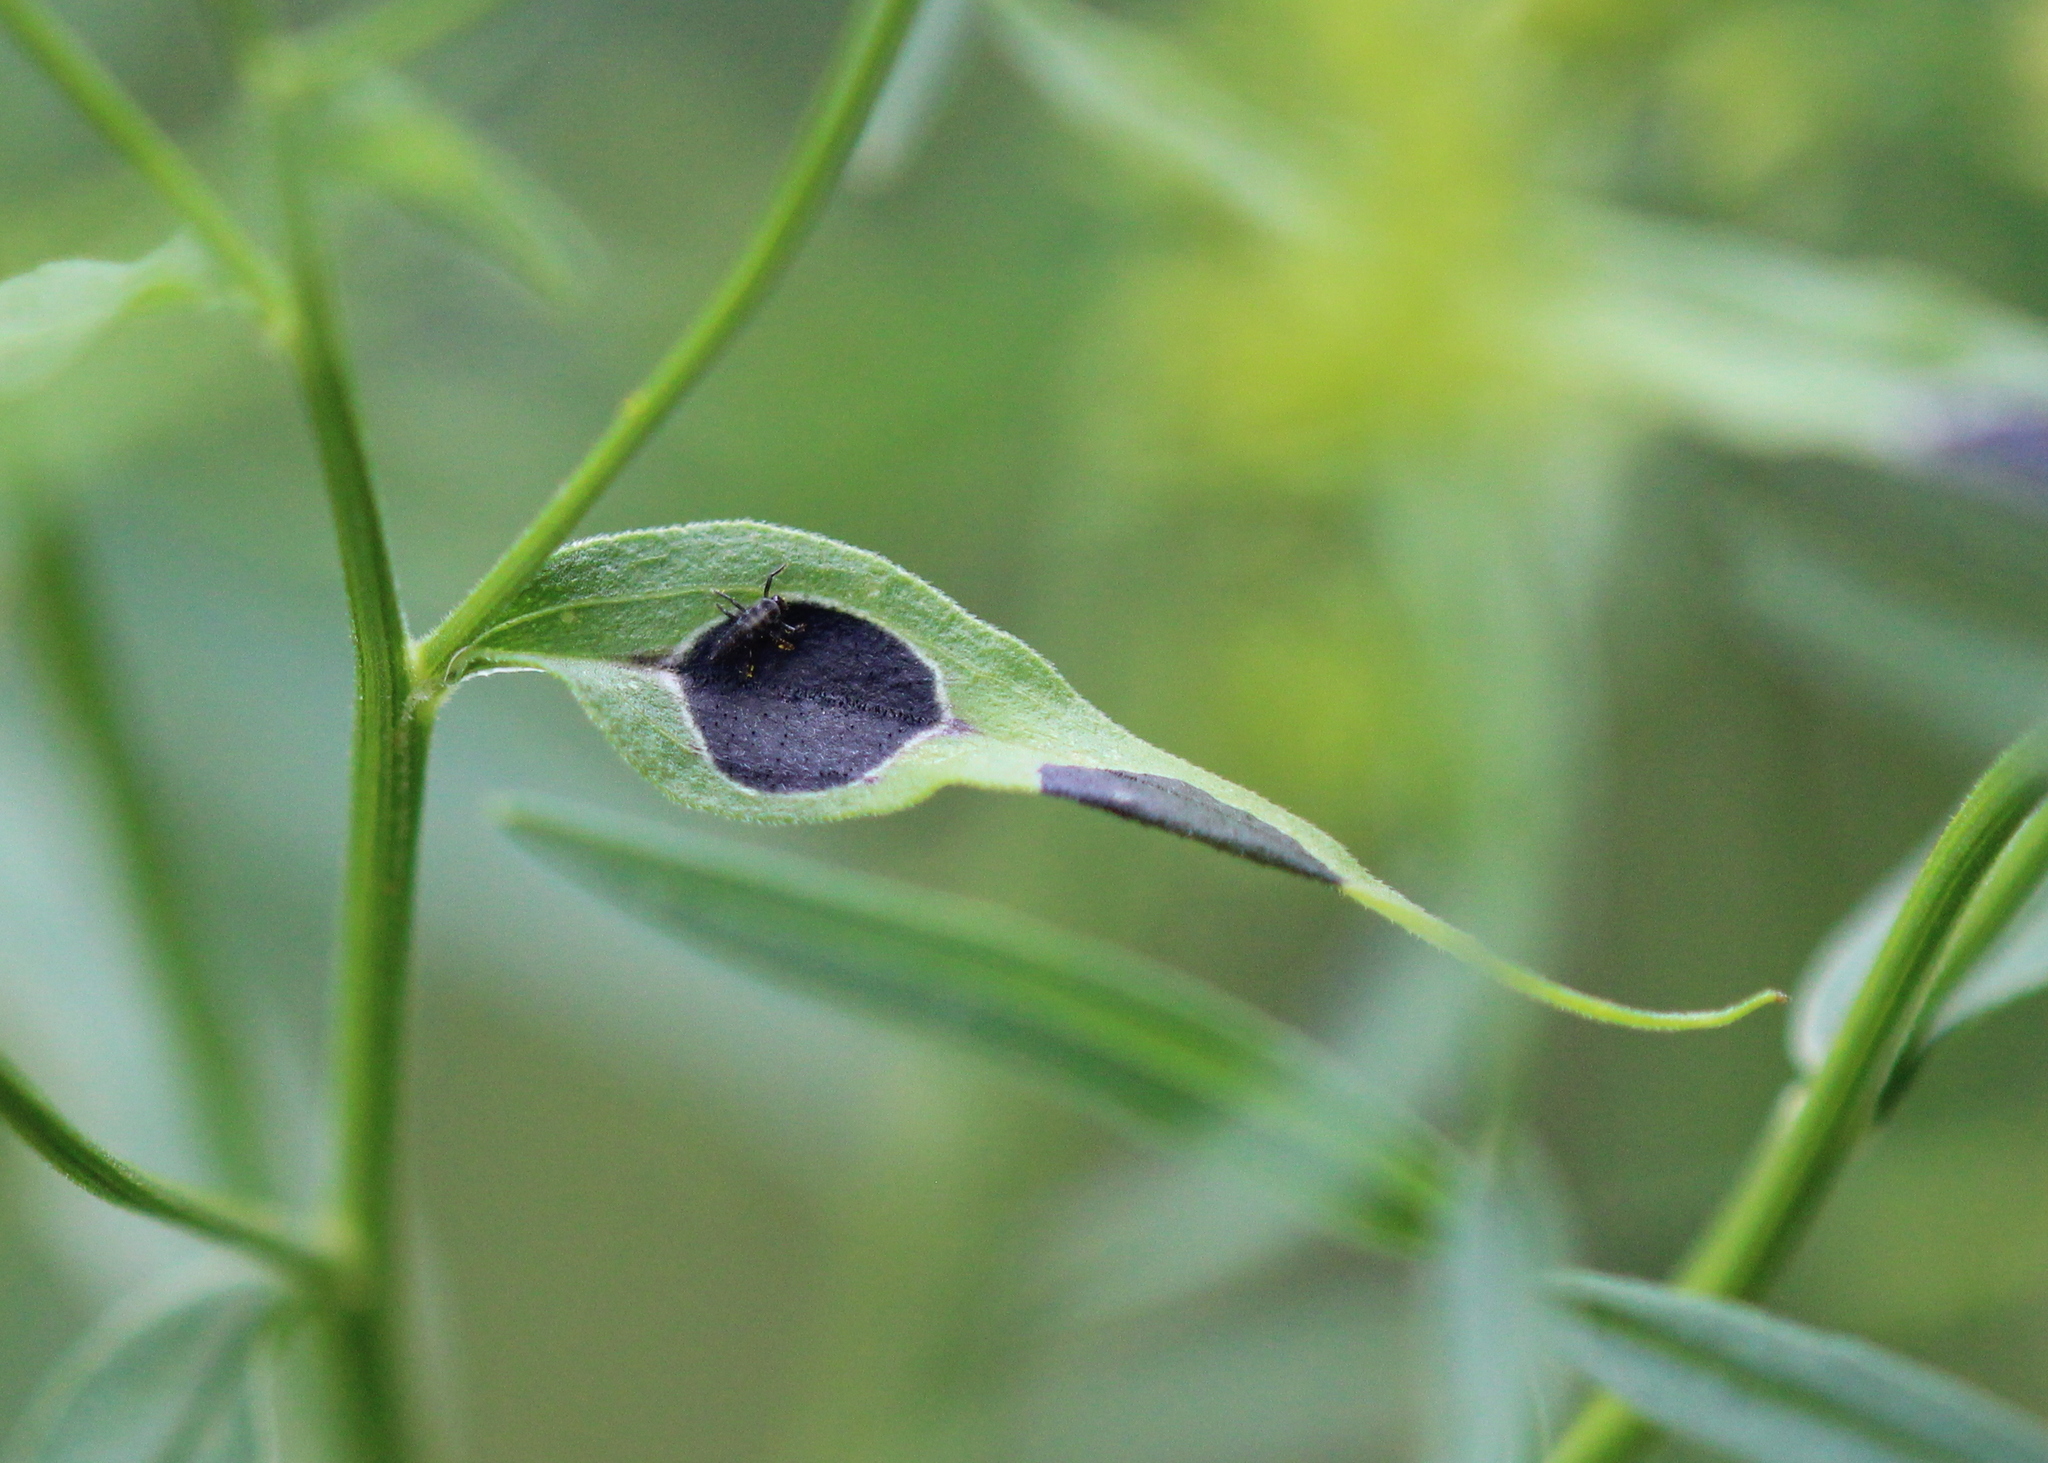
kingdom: Animalia
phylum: Arthropoda
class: Insecta
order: Diptera
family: Cecidomyiidae
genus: Asteromyia
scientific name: Asteromyia euthamiae
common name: Euthamia leaf gall midge
